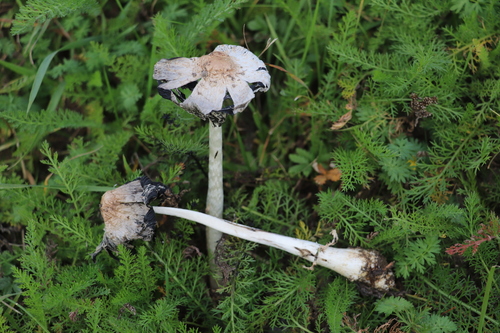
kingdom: Fungi
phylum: Basidiomycota
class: Agaricomycetes
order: Agaricales
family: Agaricaceae
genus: Coprinus
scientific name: Coprinus comatus
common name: Lawyer's wig
